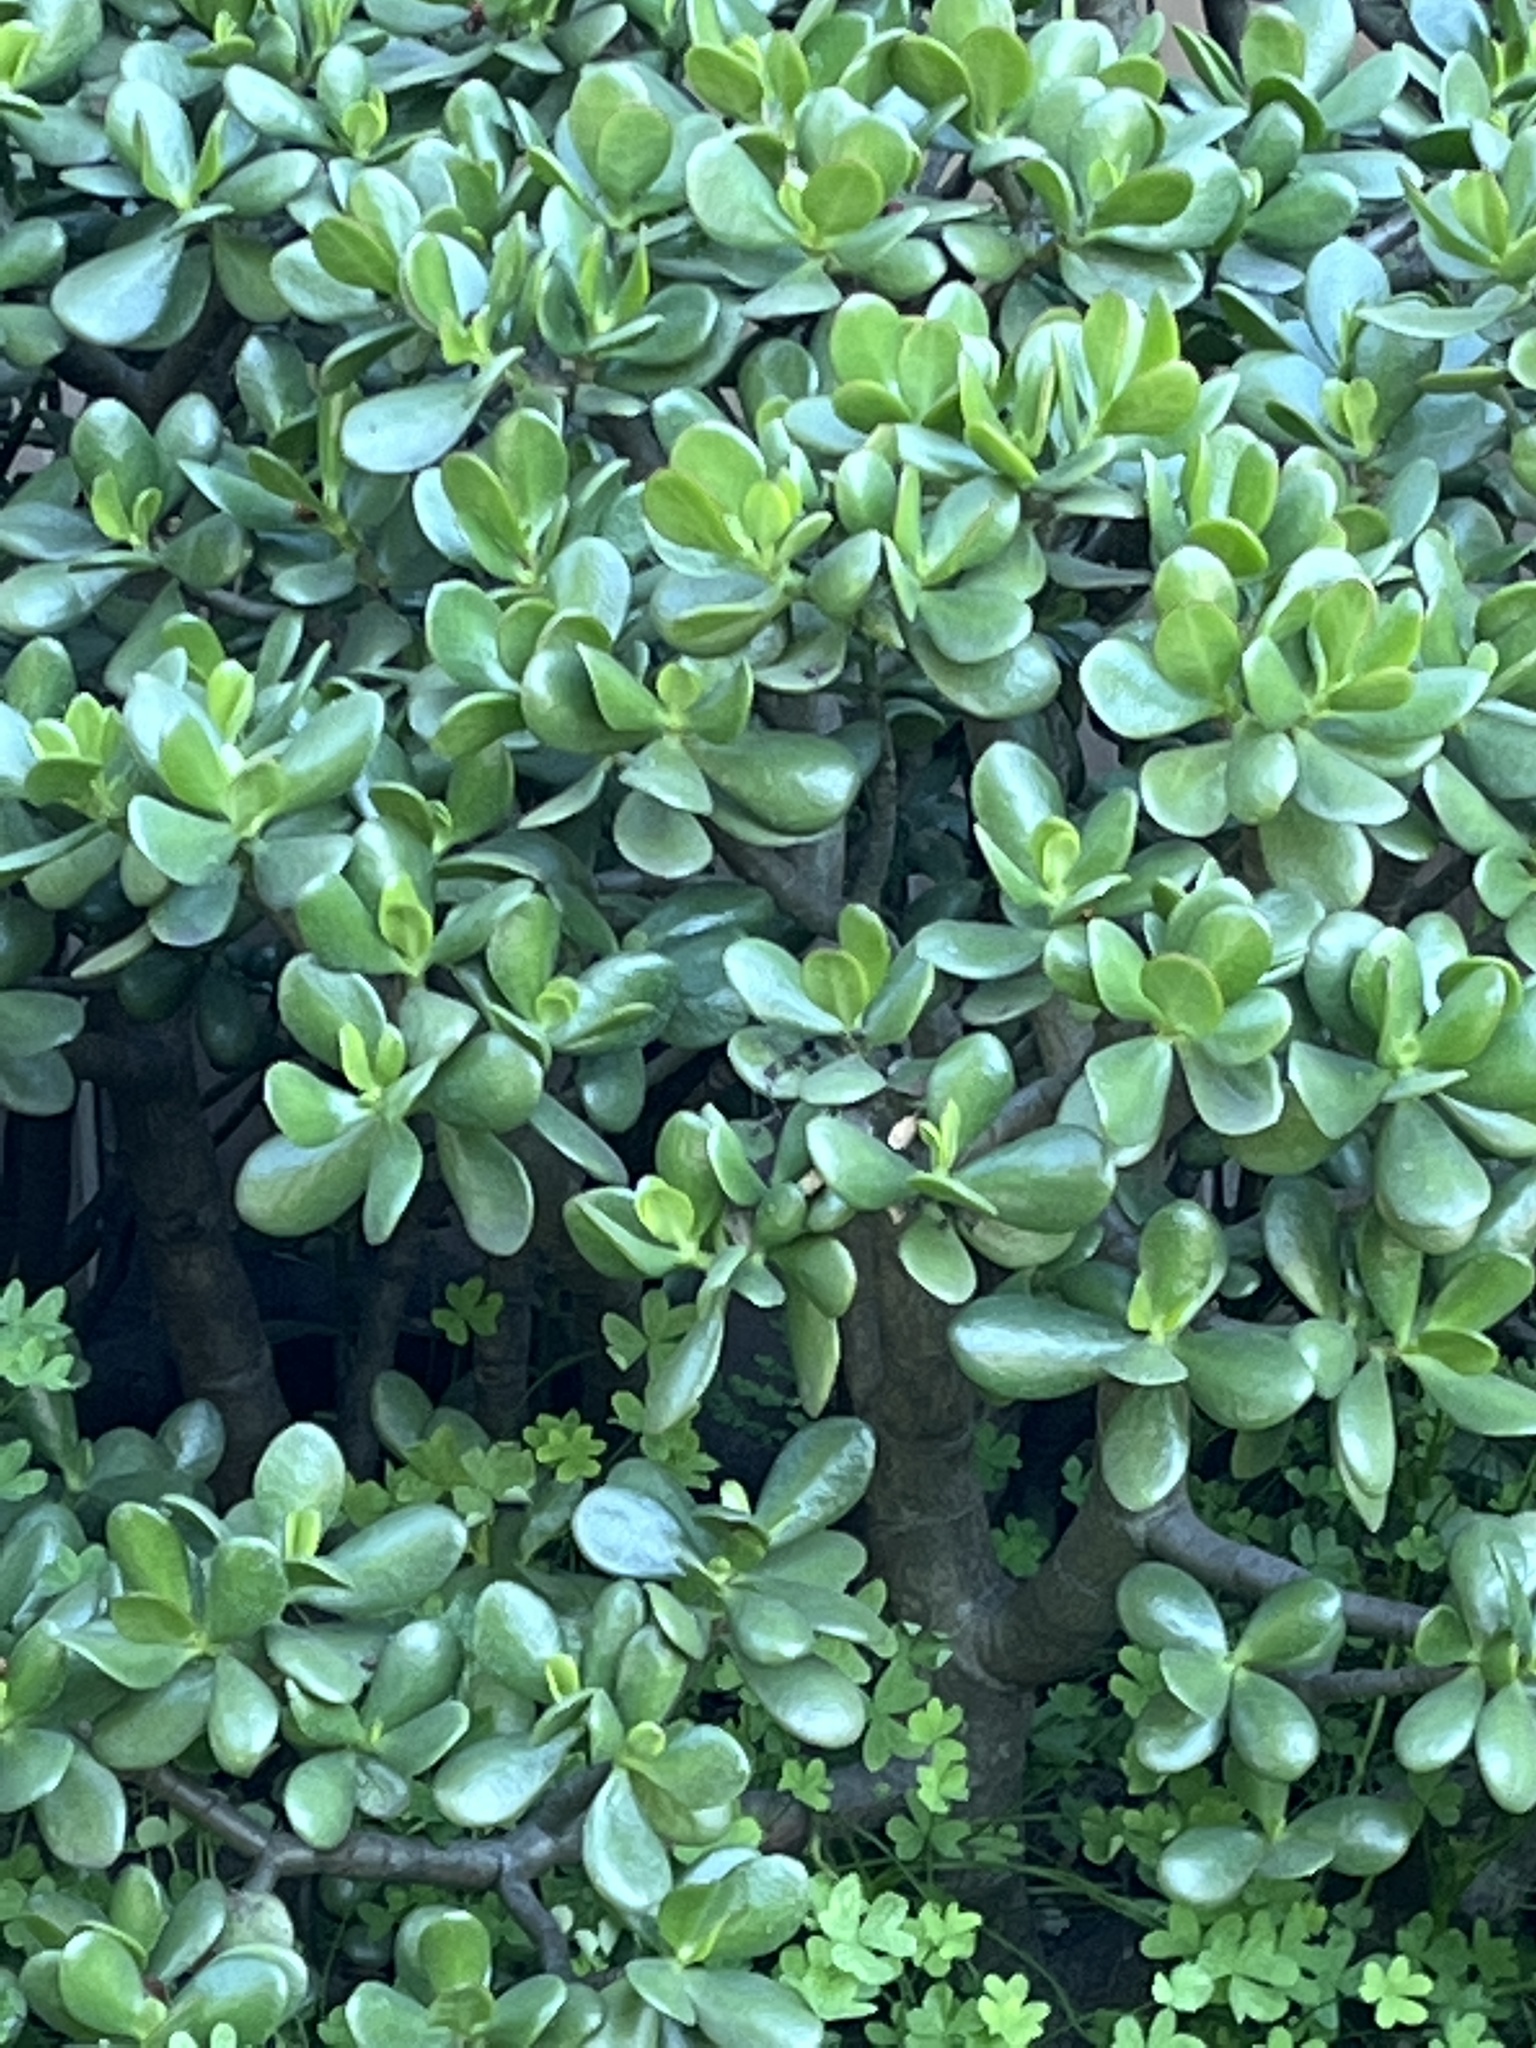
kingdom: Plantae
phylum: Tracheophyta
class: Magnoliopsida
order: Saxifragales
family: Crassulaceae
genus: Crassula
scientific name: Crassula ovata
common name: Jade plant
